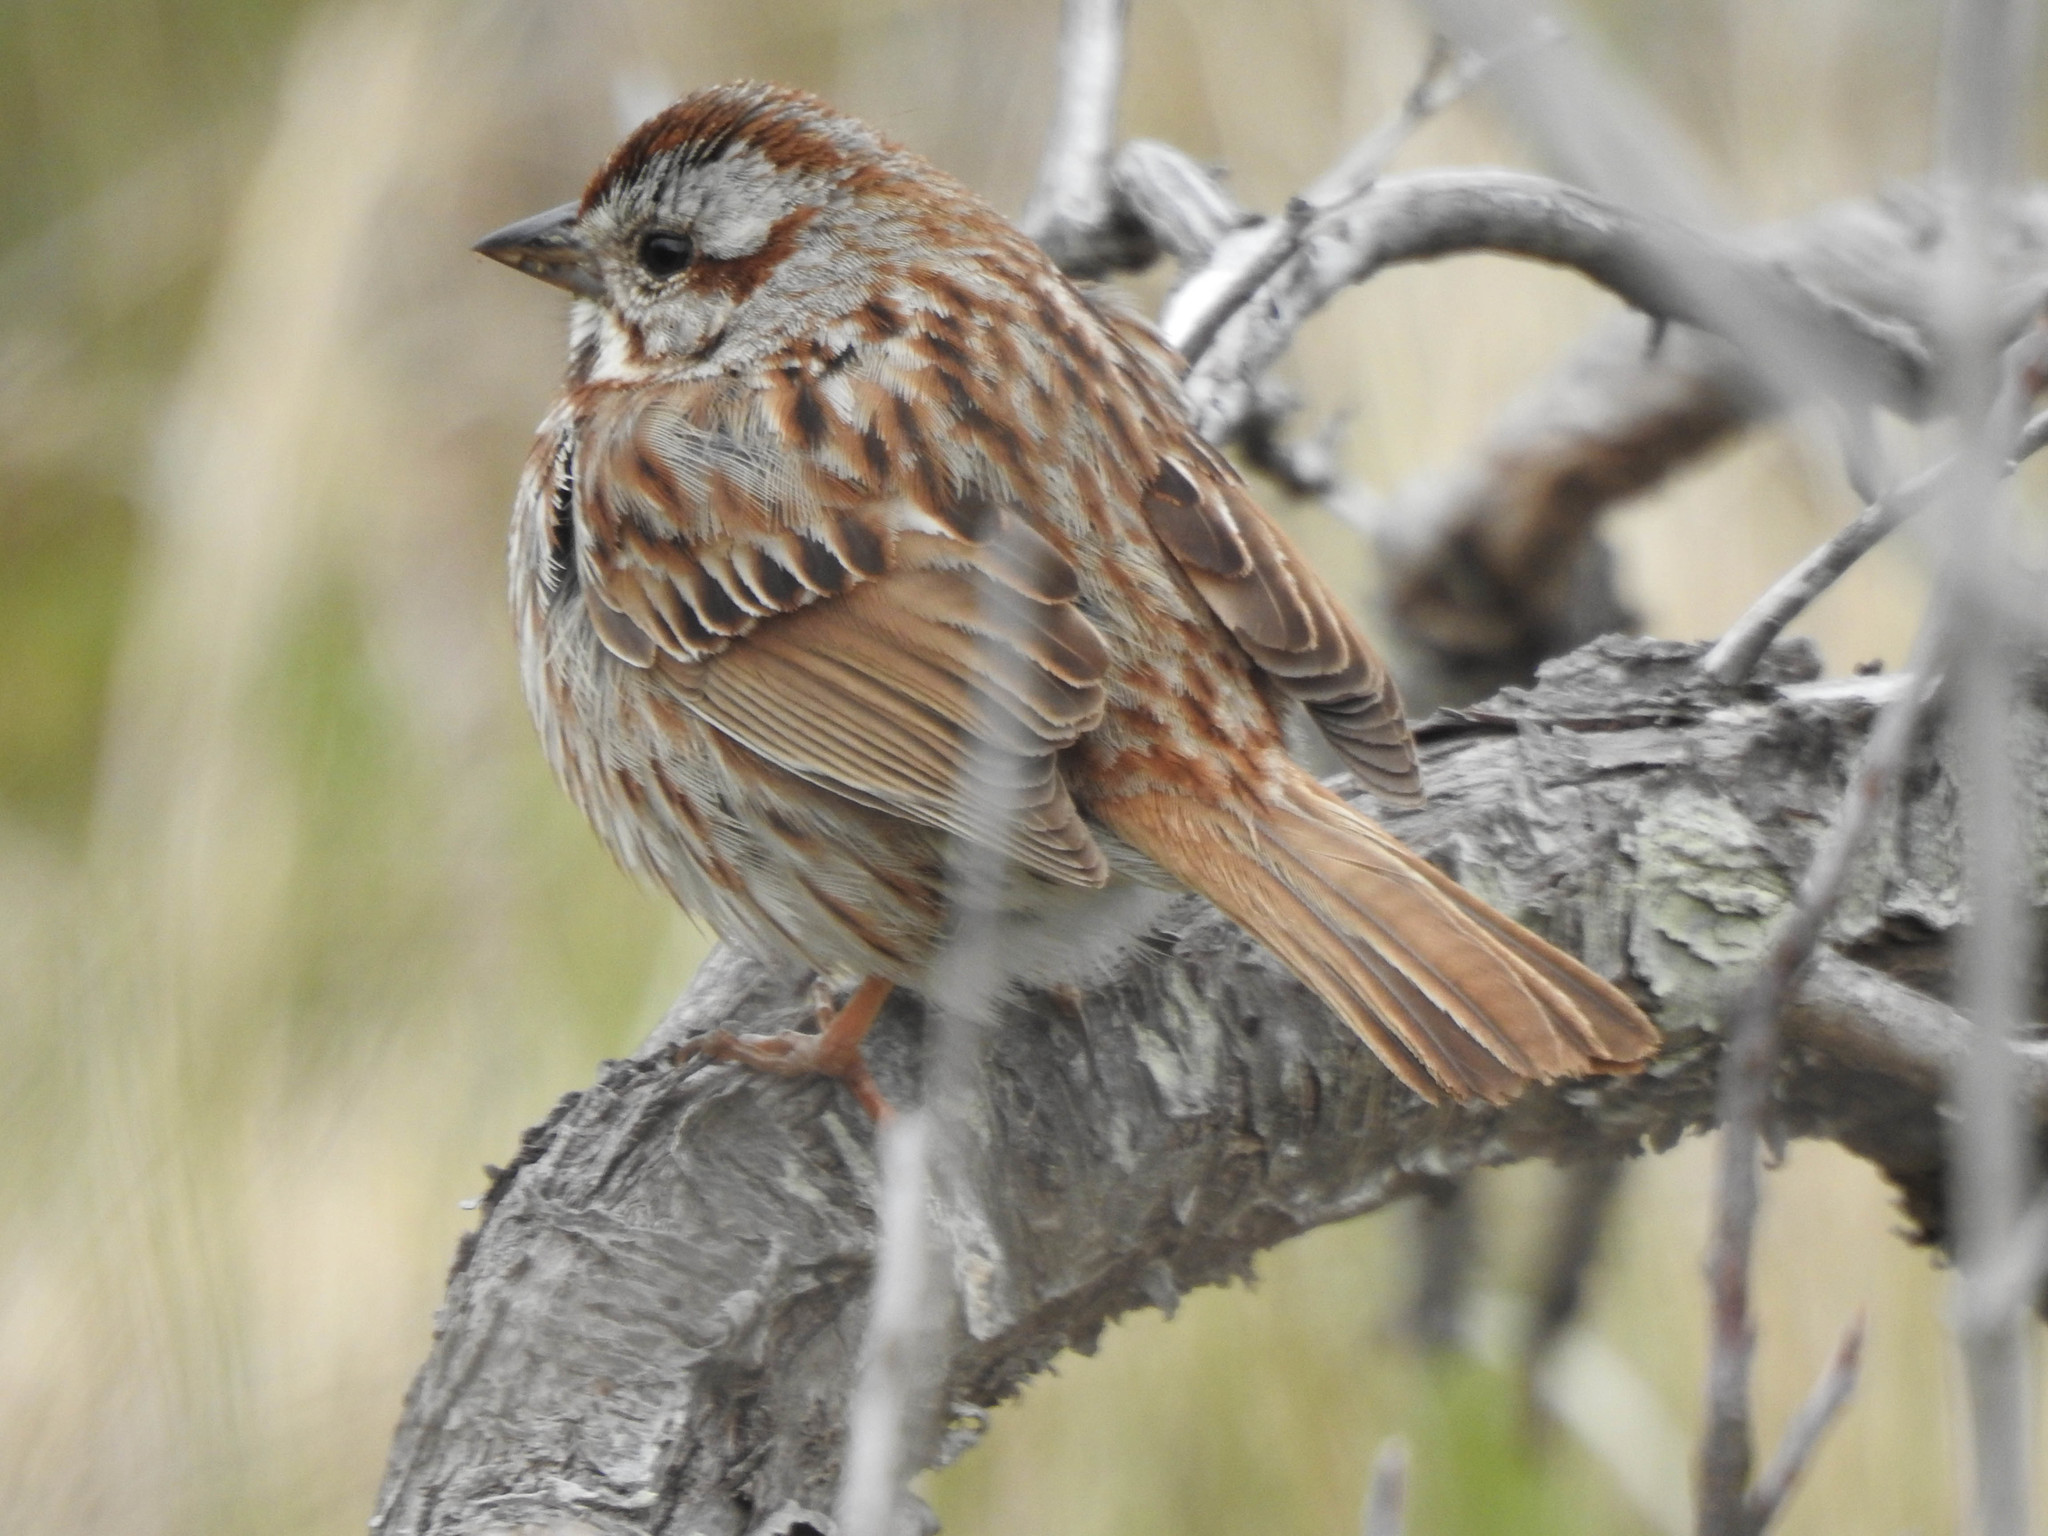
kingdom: Animalia
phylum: Chordata
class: Aves
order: Passeriformes
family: Passerellidae
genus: Melospiza
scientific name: Melospiza melodia
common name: Song sparrow
